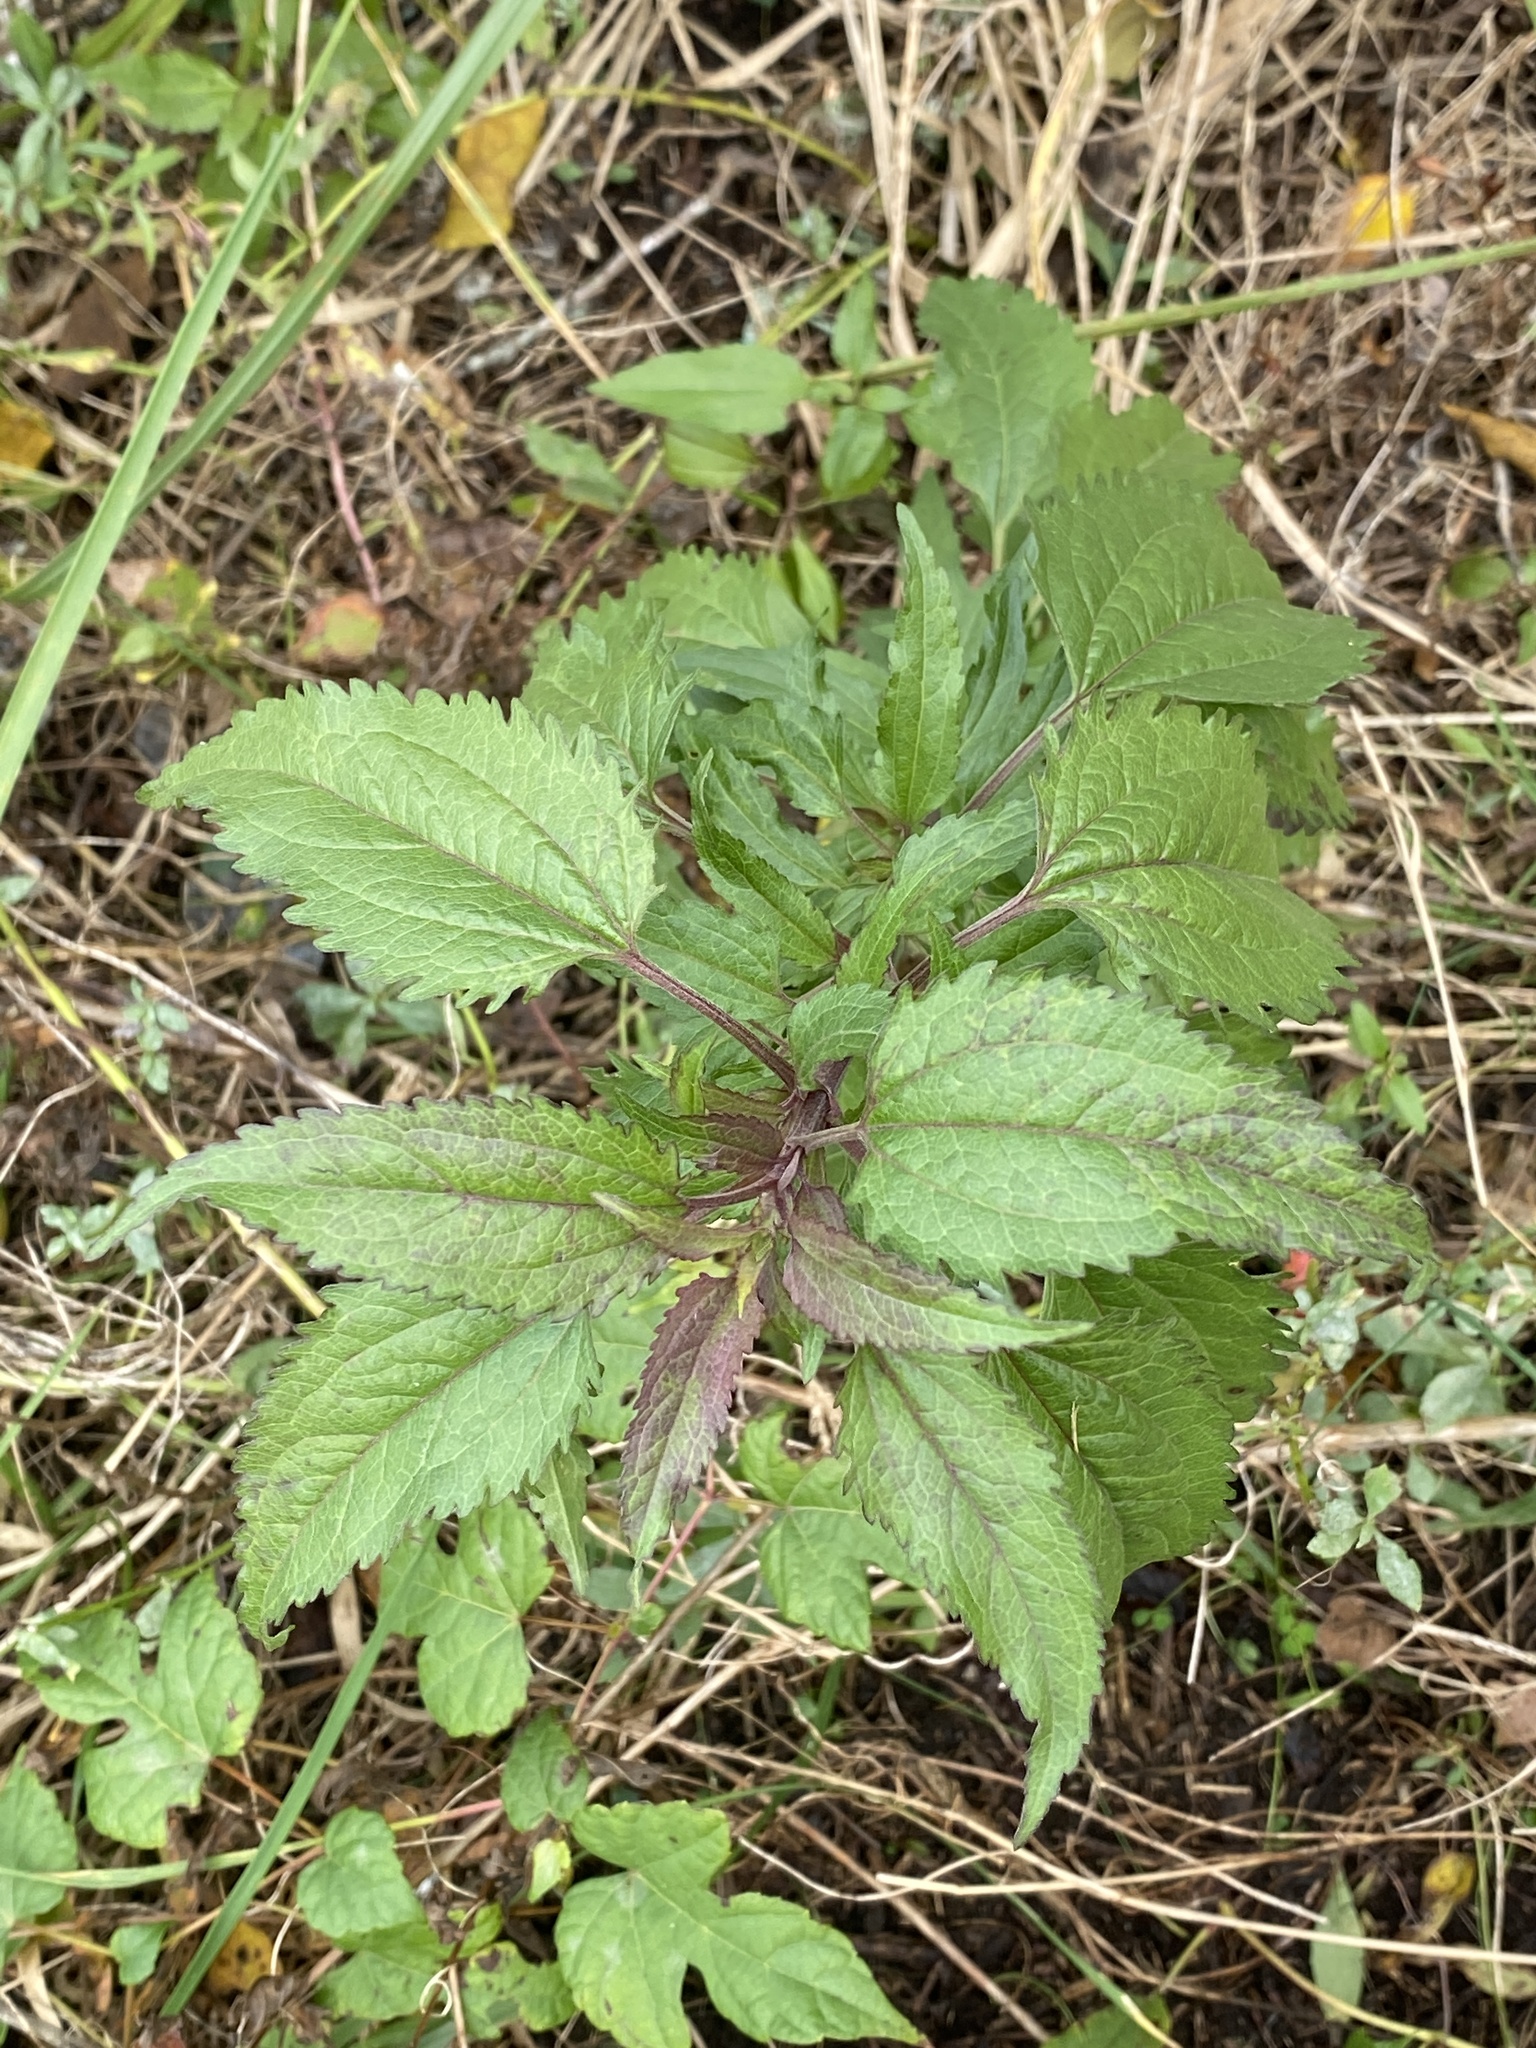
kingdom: Plantae
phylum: Tracheophyta
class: Magnoliopsida
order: Asterales
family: Asteraceae
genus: Eupatorium
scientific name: Eupatorium serotinum
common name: Late boneset
